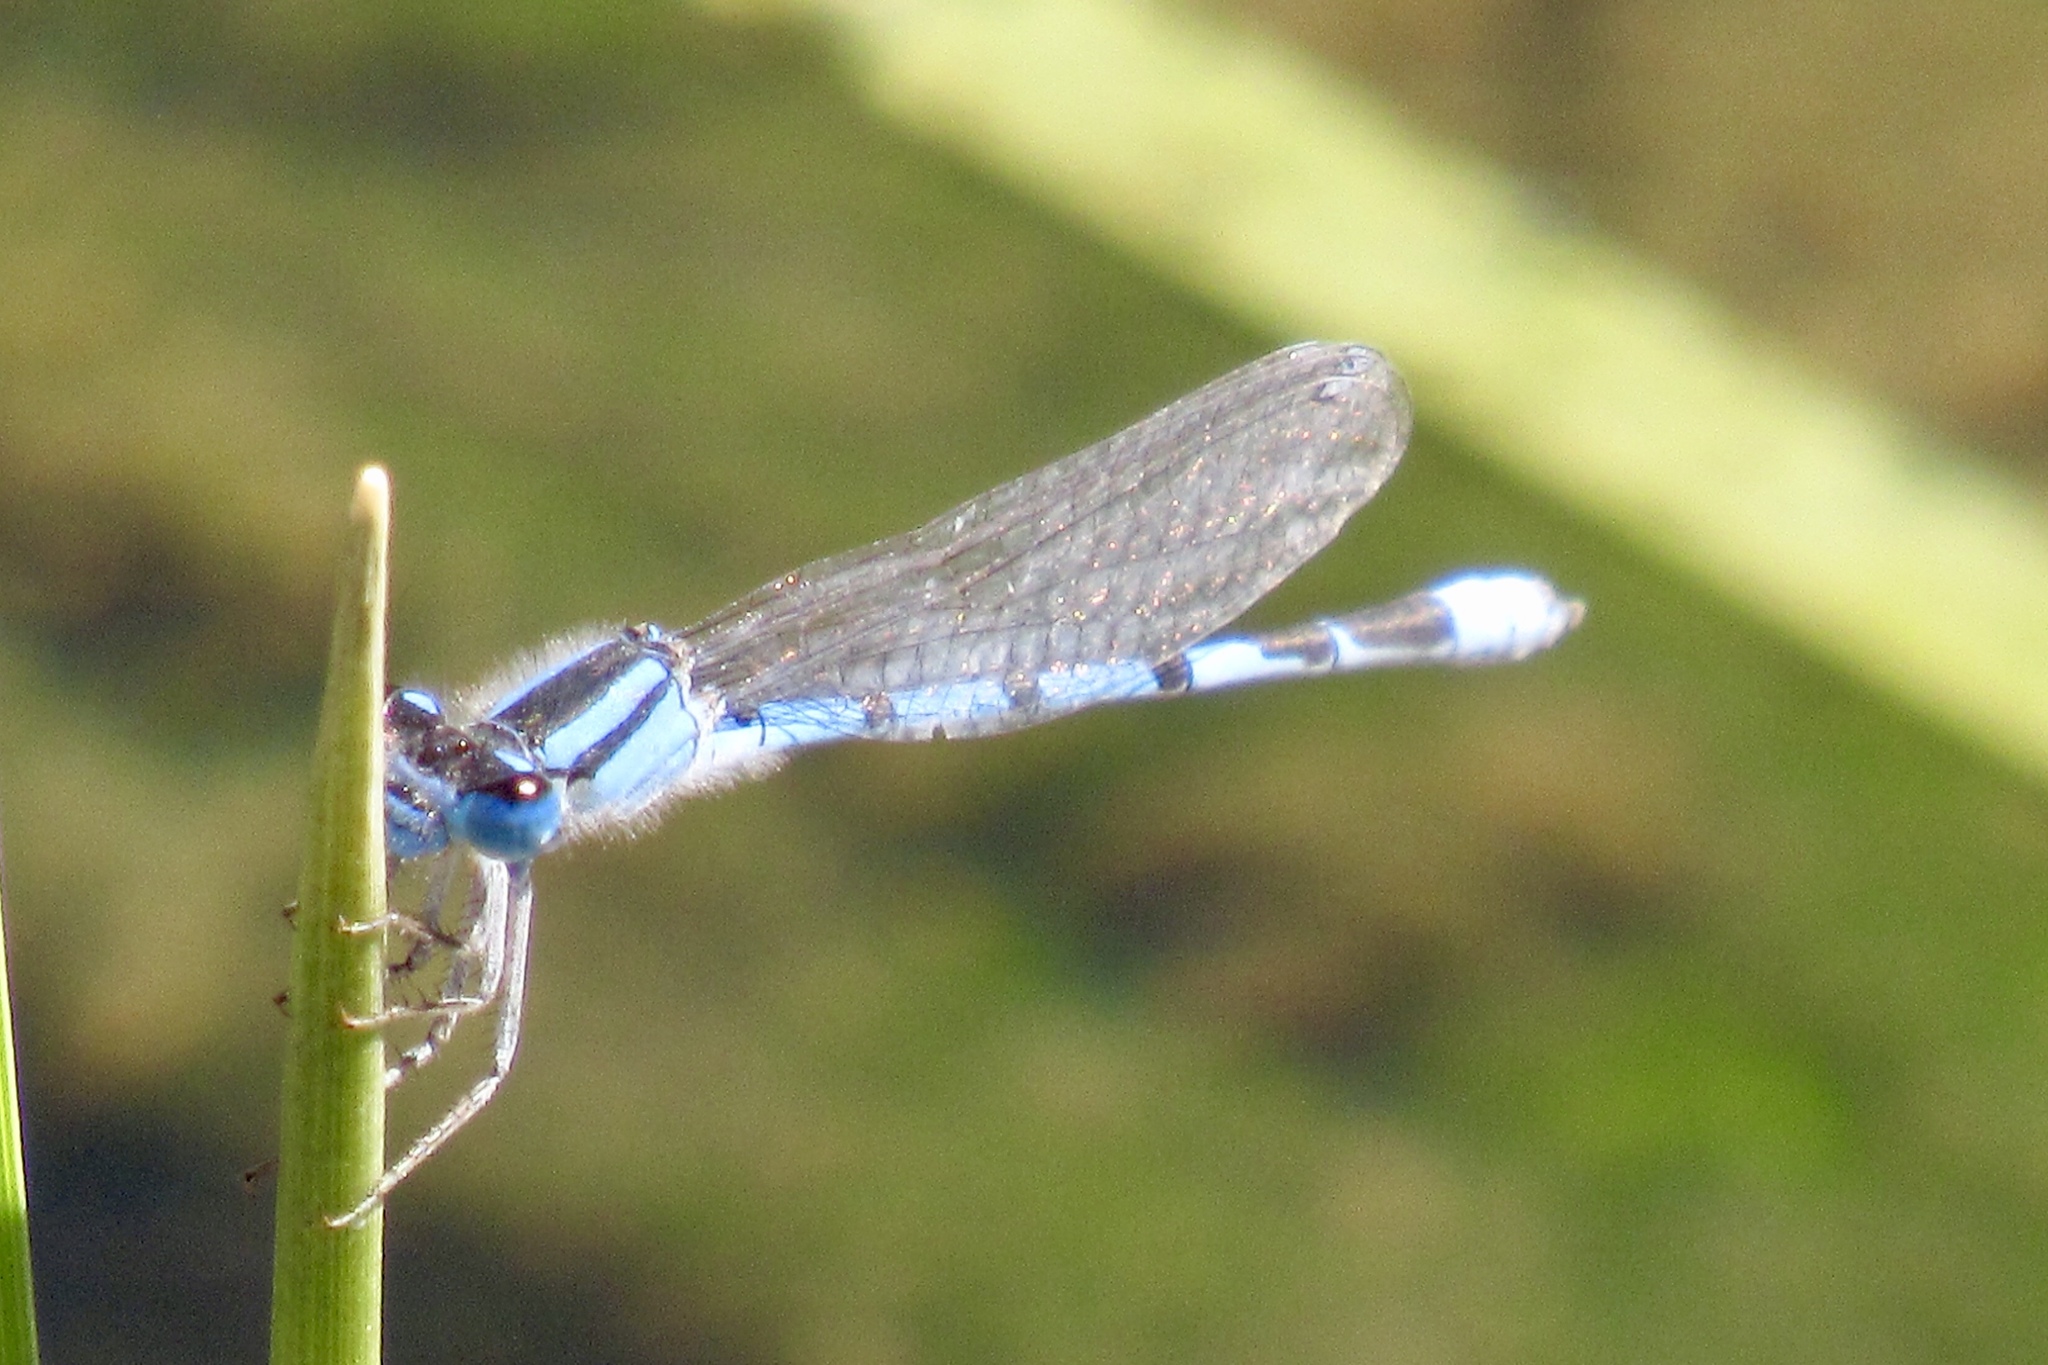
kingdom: Animalia
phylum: Arthropoda
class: Insecta
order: Odonata
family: Coenagrionidae
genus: Enallagma
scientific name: Enallagma civile
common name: Damselfly
